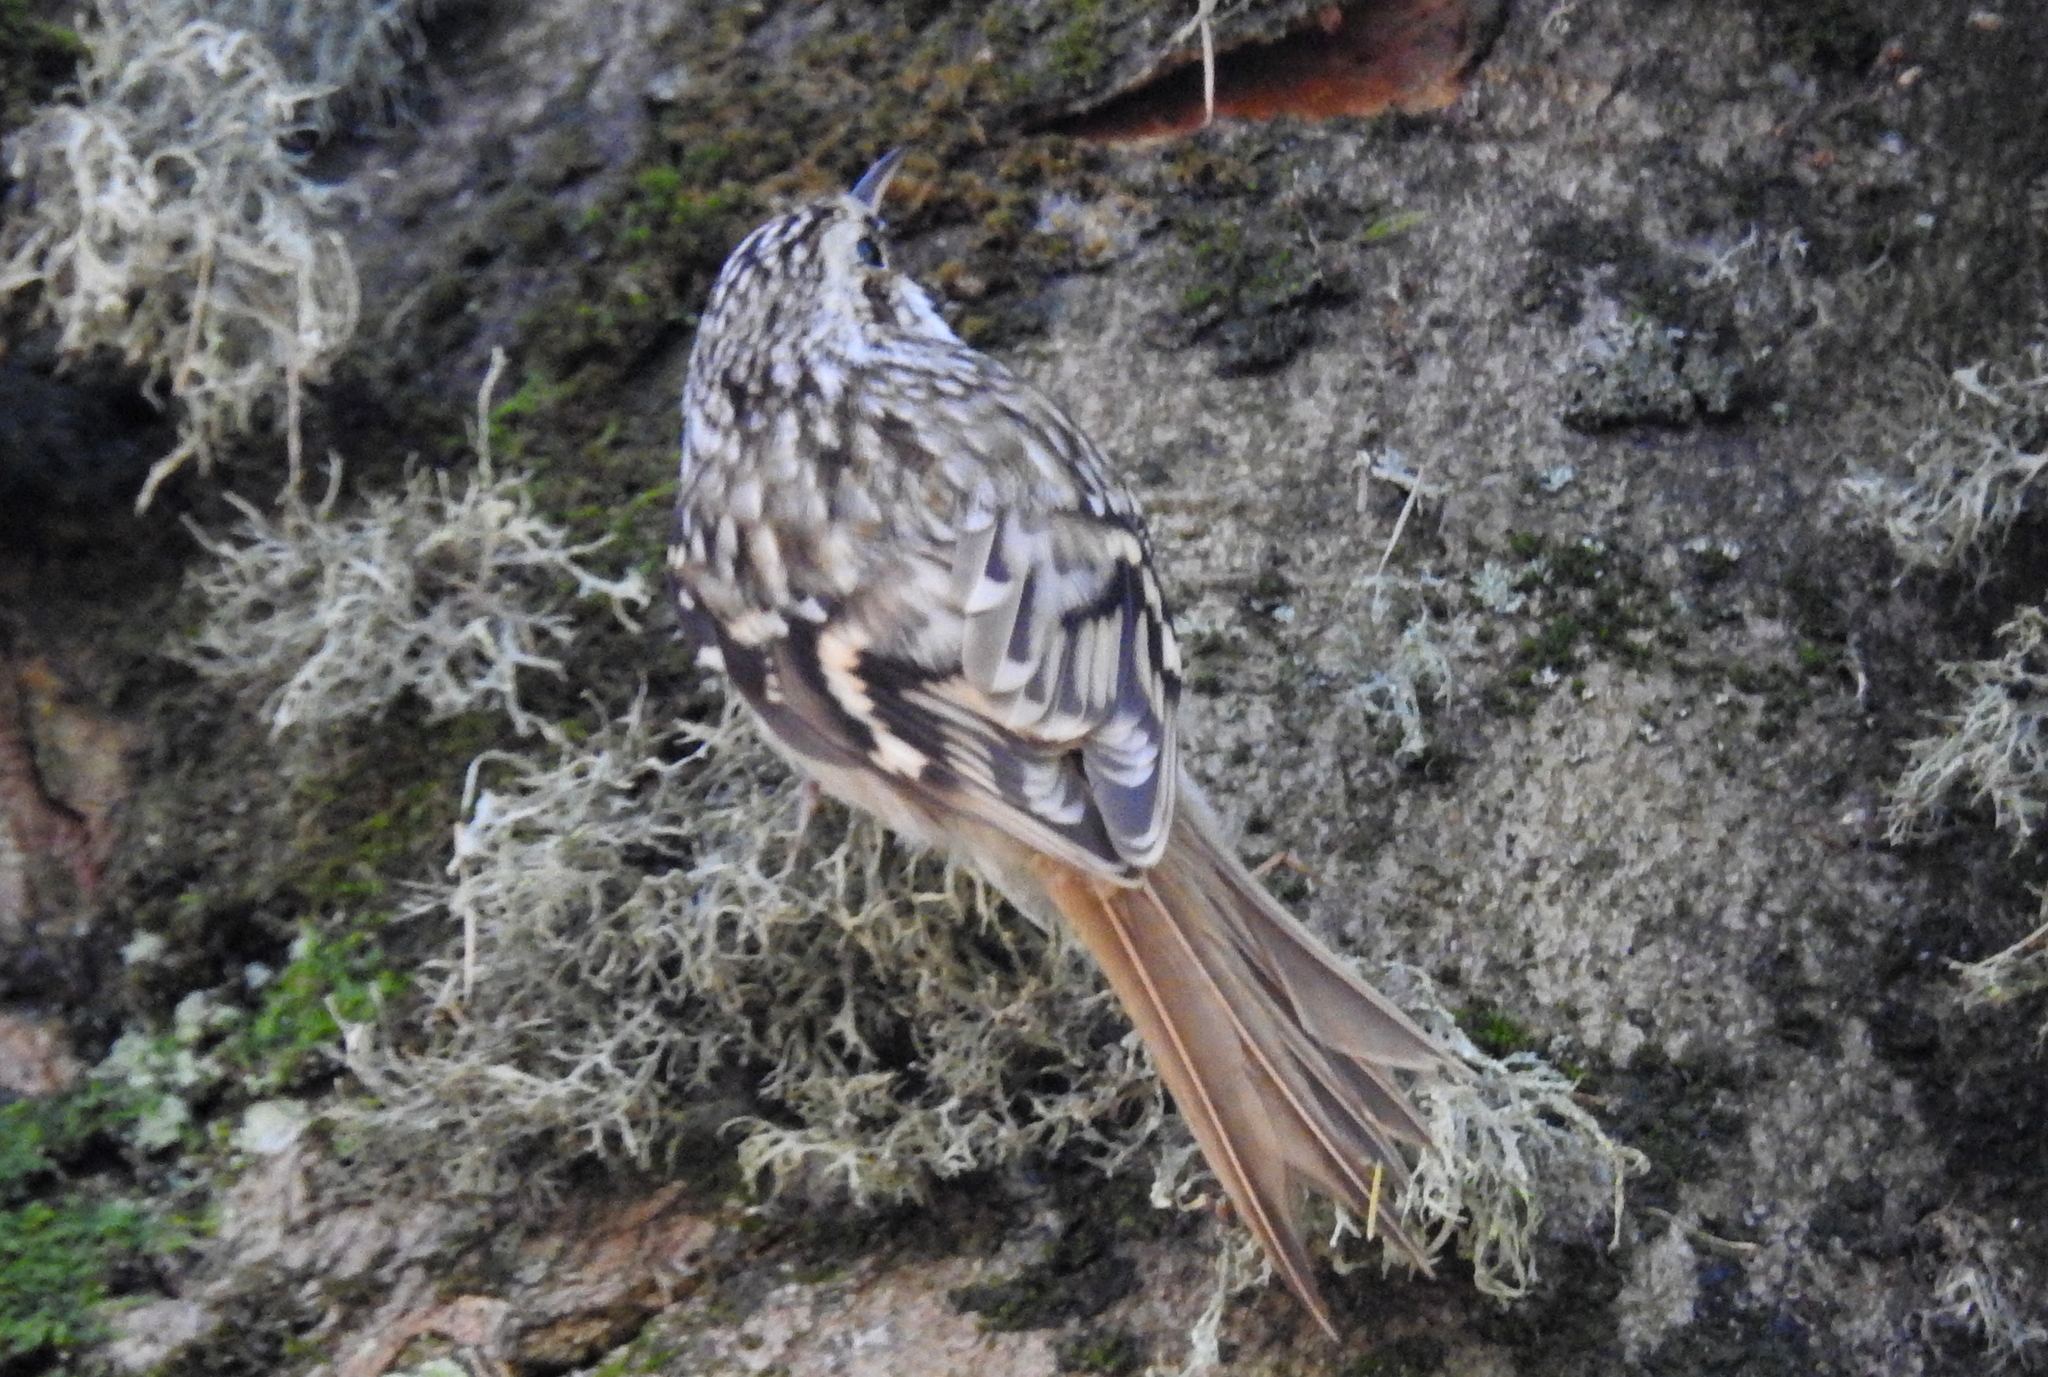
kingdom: Animalia
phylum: Chordata
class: Aves
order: Passeriformes
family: Certhiidae
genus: Certhia
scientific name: Certhia familiaris
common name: Eurasian treecreeper
